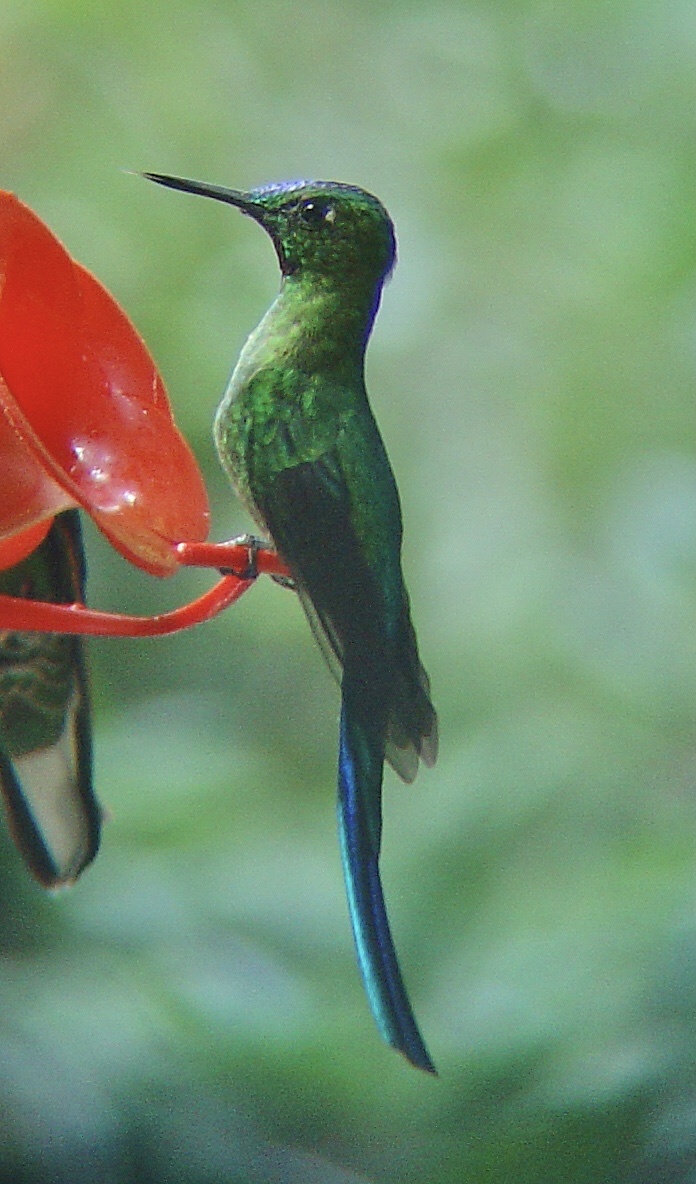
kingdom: Animalia
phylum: Chordata
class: Aves
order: Apodiformes
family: Trochilidae
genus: Aglaiocercus
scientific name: Aglaiocercus kingii
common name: Long-tailed sylph
